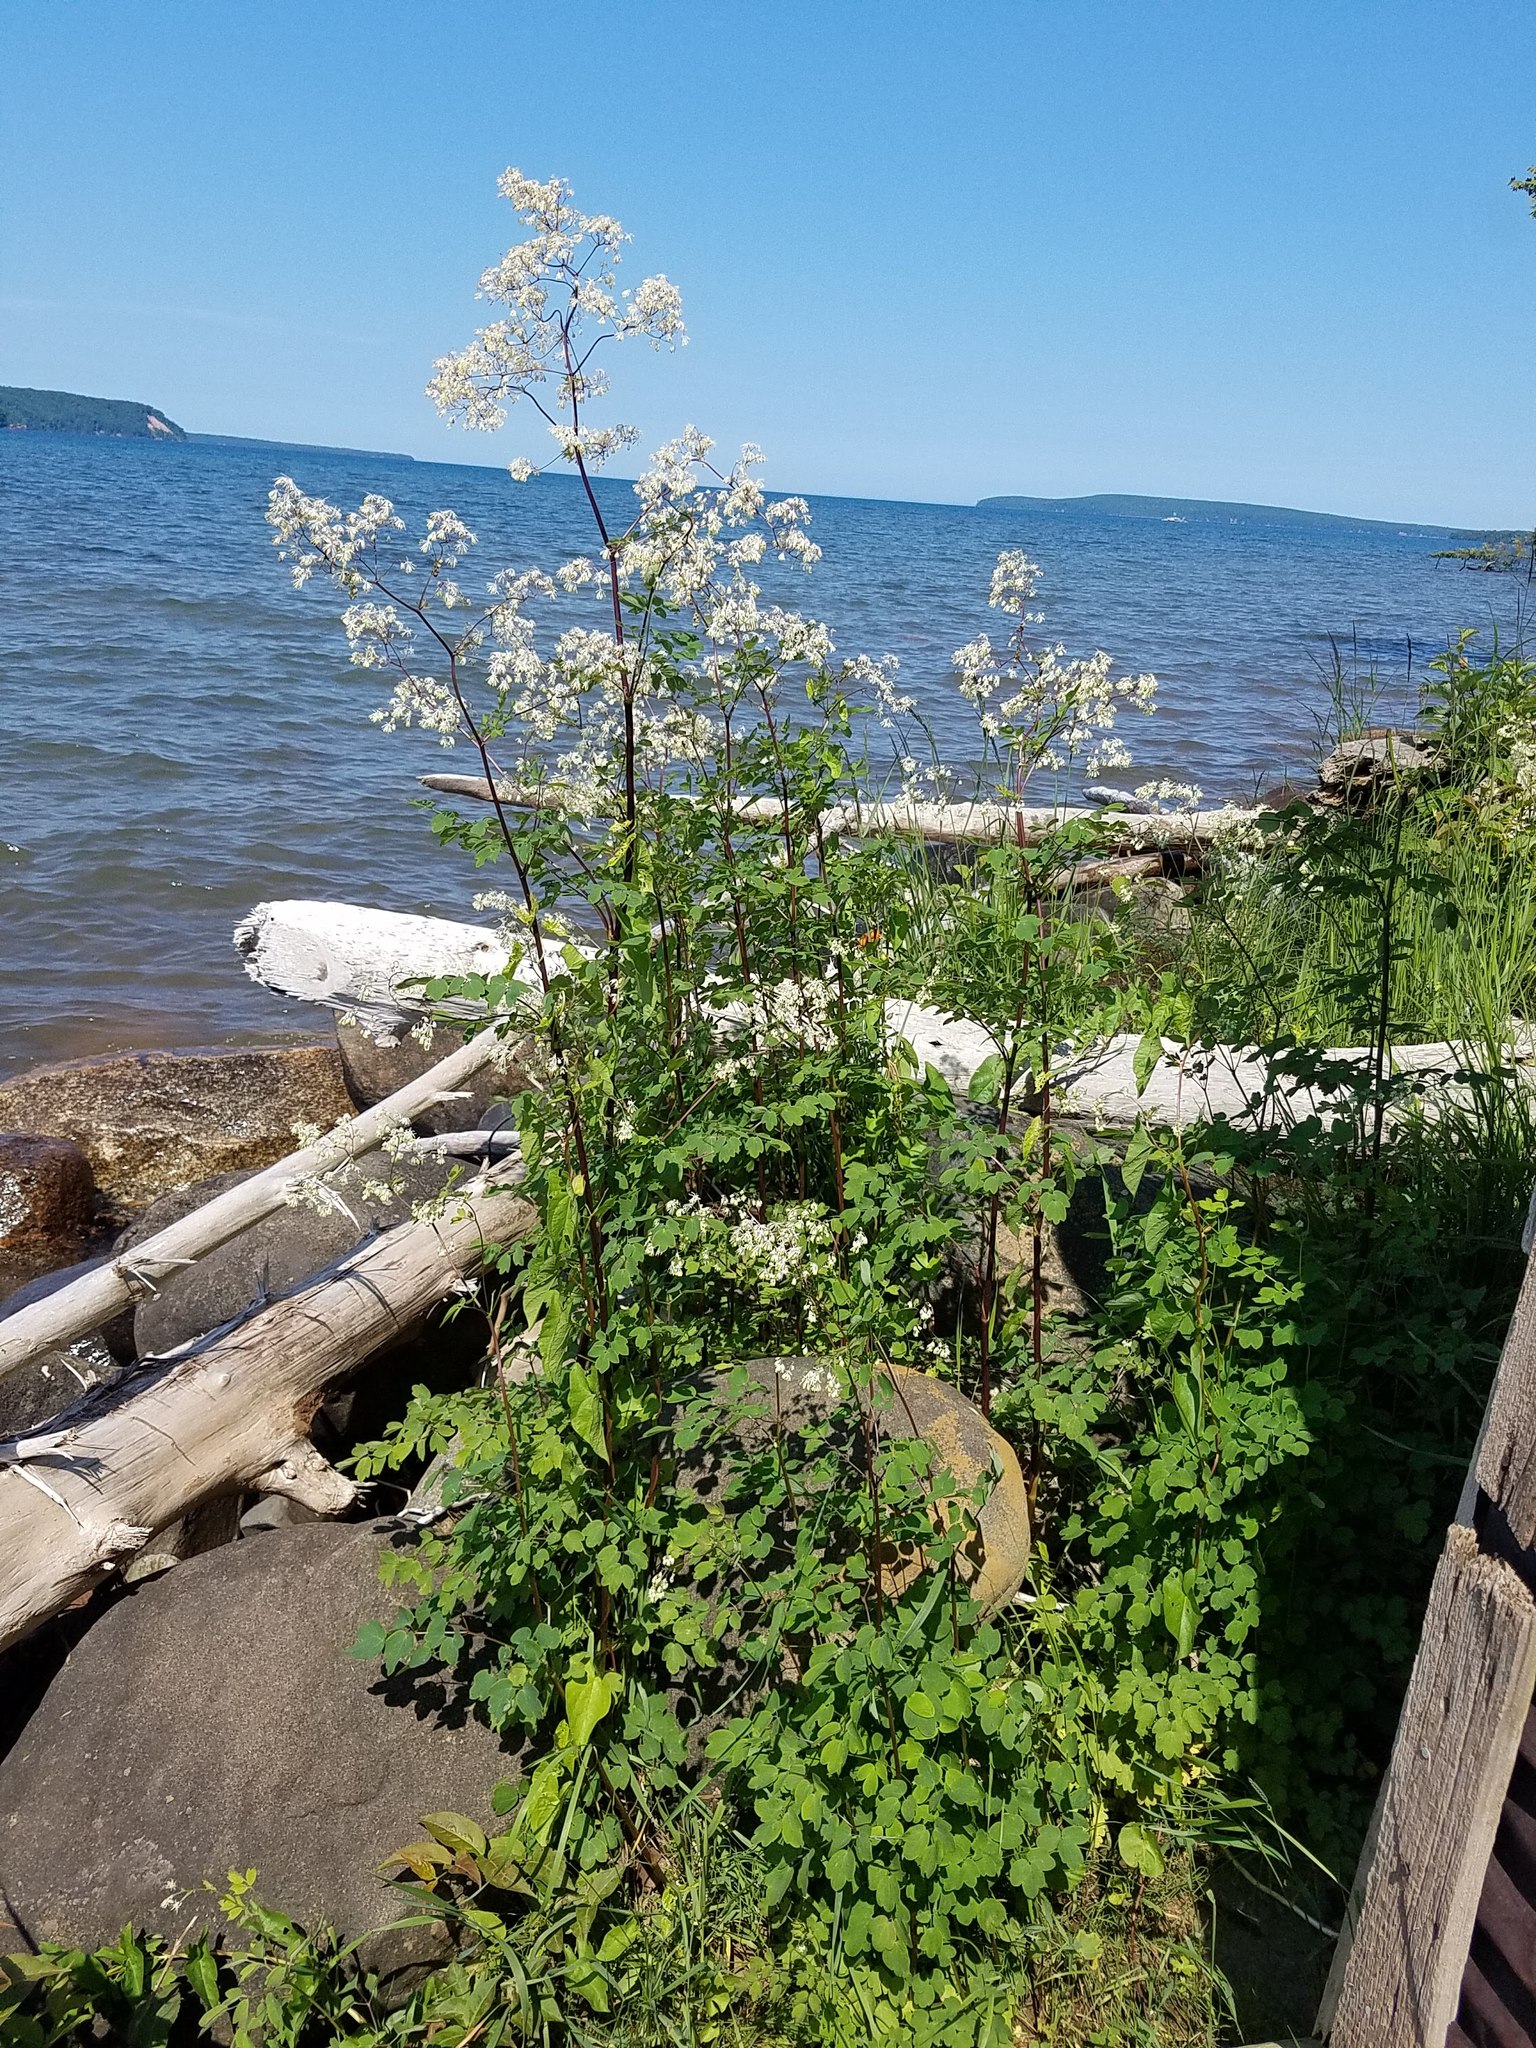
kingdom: Plantae
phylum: Tracheophyta
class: Magnoliopsida
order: Ranunculales
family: Ranunculaceae
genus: Thalictrum
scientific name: Thalictrum dasycarpum
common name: Purple meadow-rue
